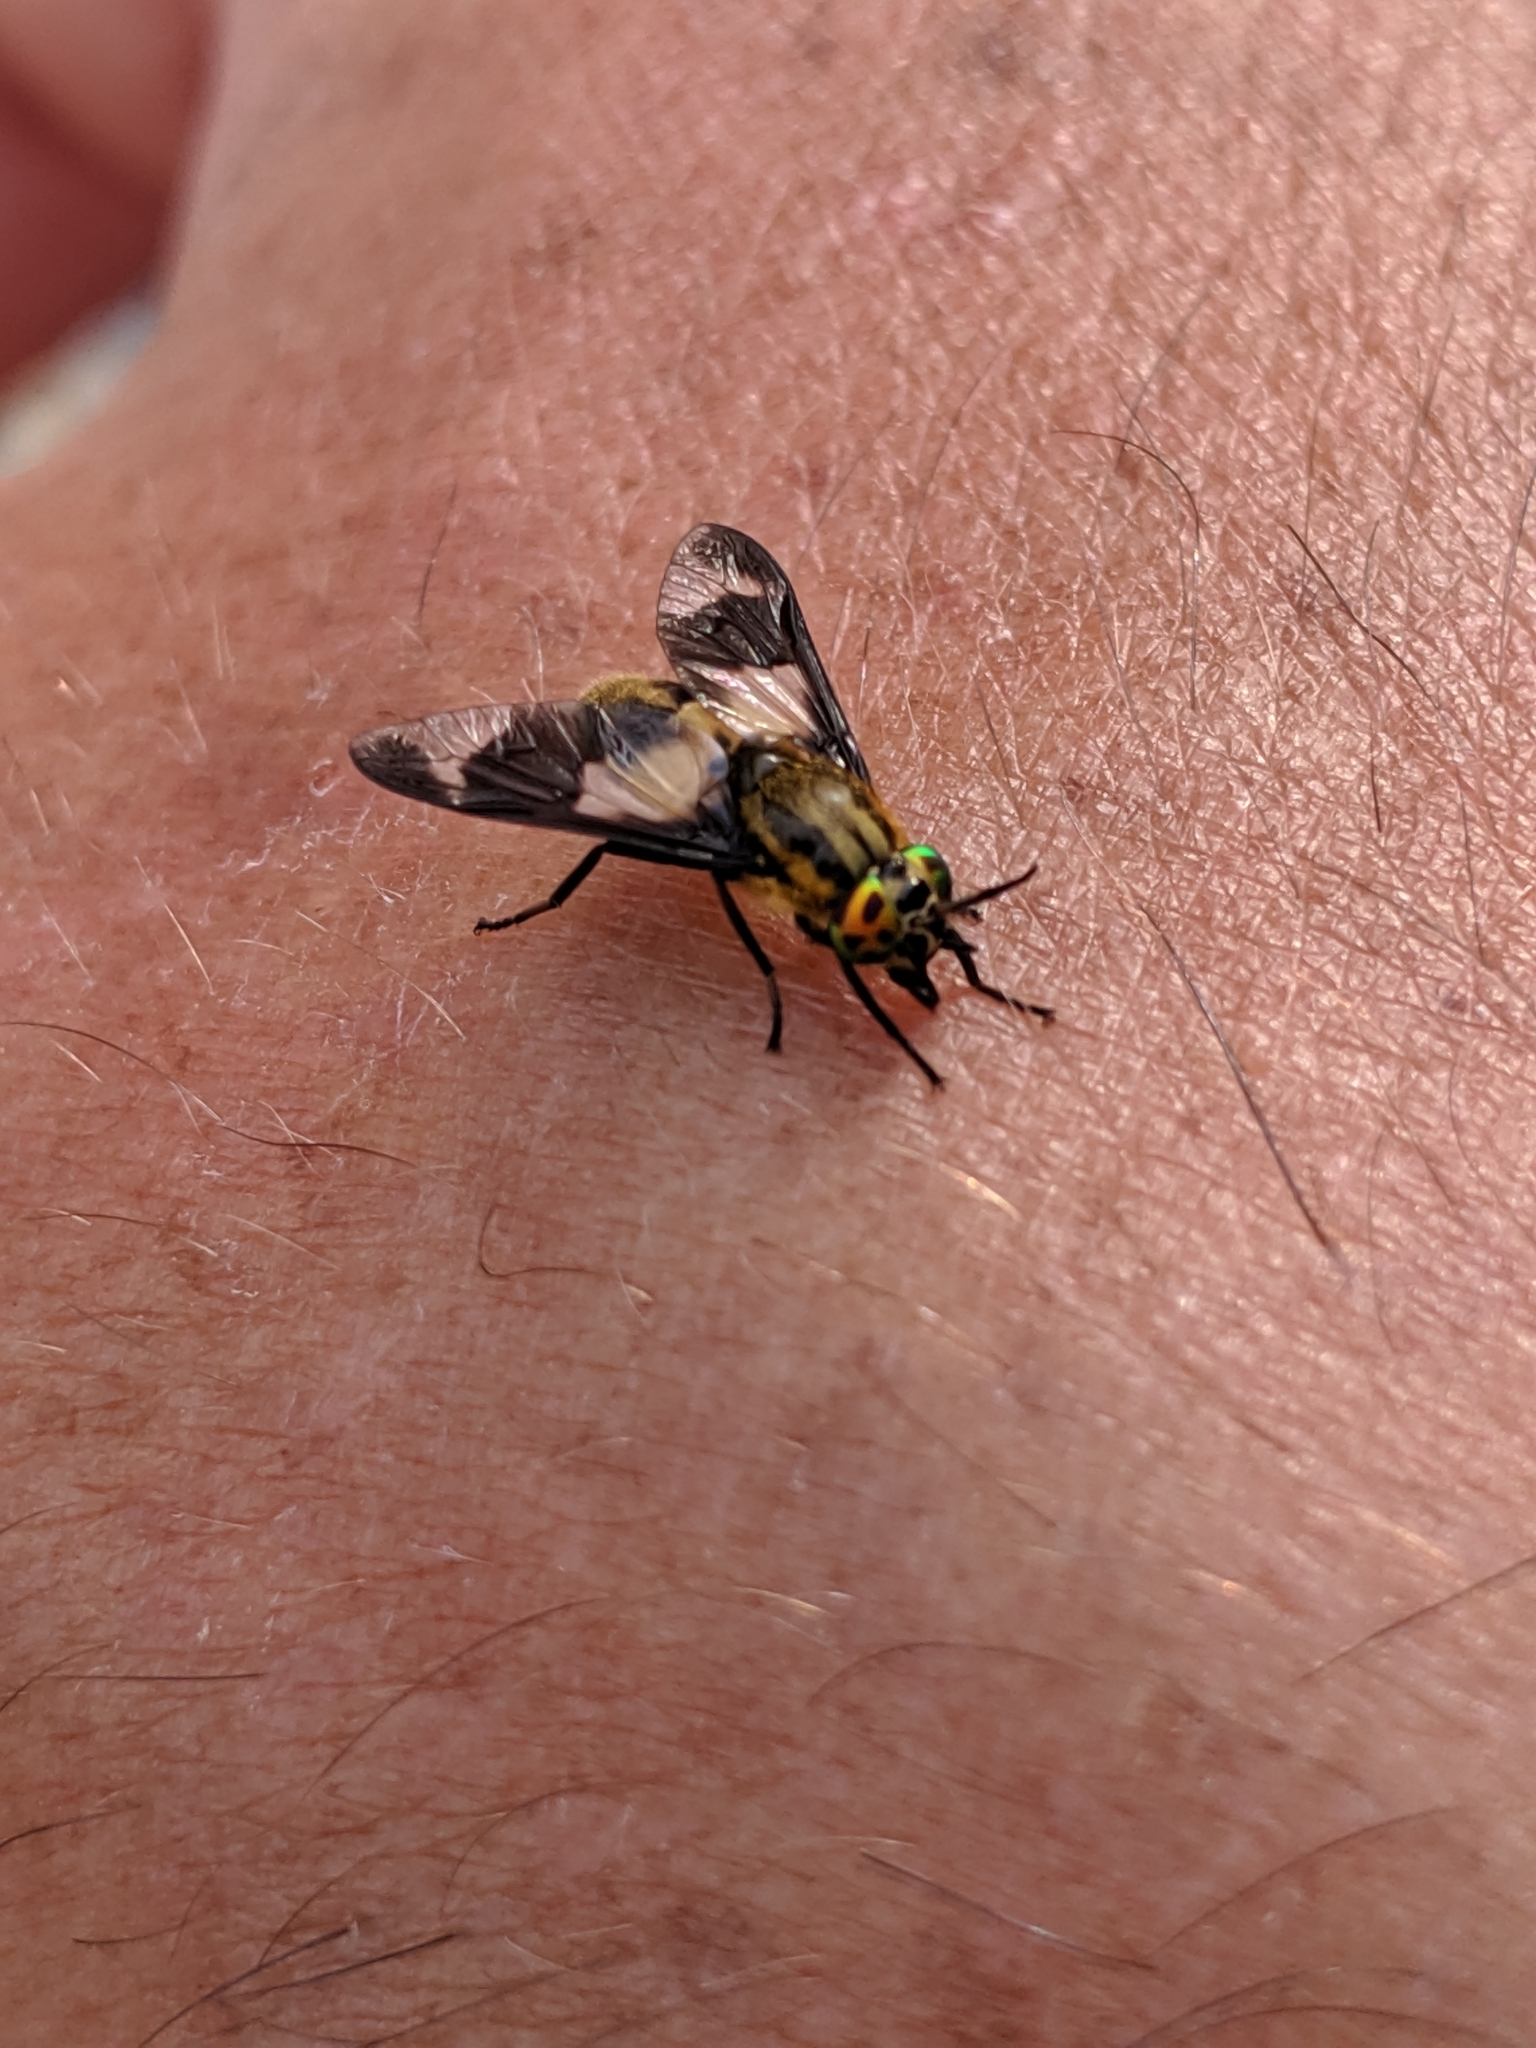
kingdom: Animalia
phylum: Arthropoda
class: Insecta
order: Diptera
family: Tabanidae
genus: Chrysops
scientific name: Chrysops caecutiens
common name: Splayed deerfly
